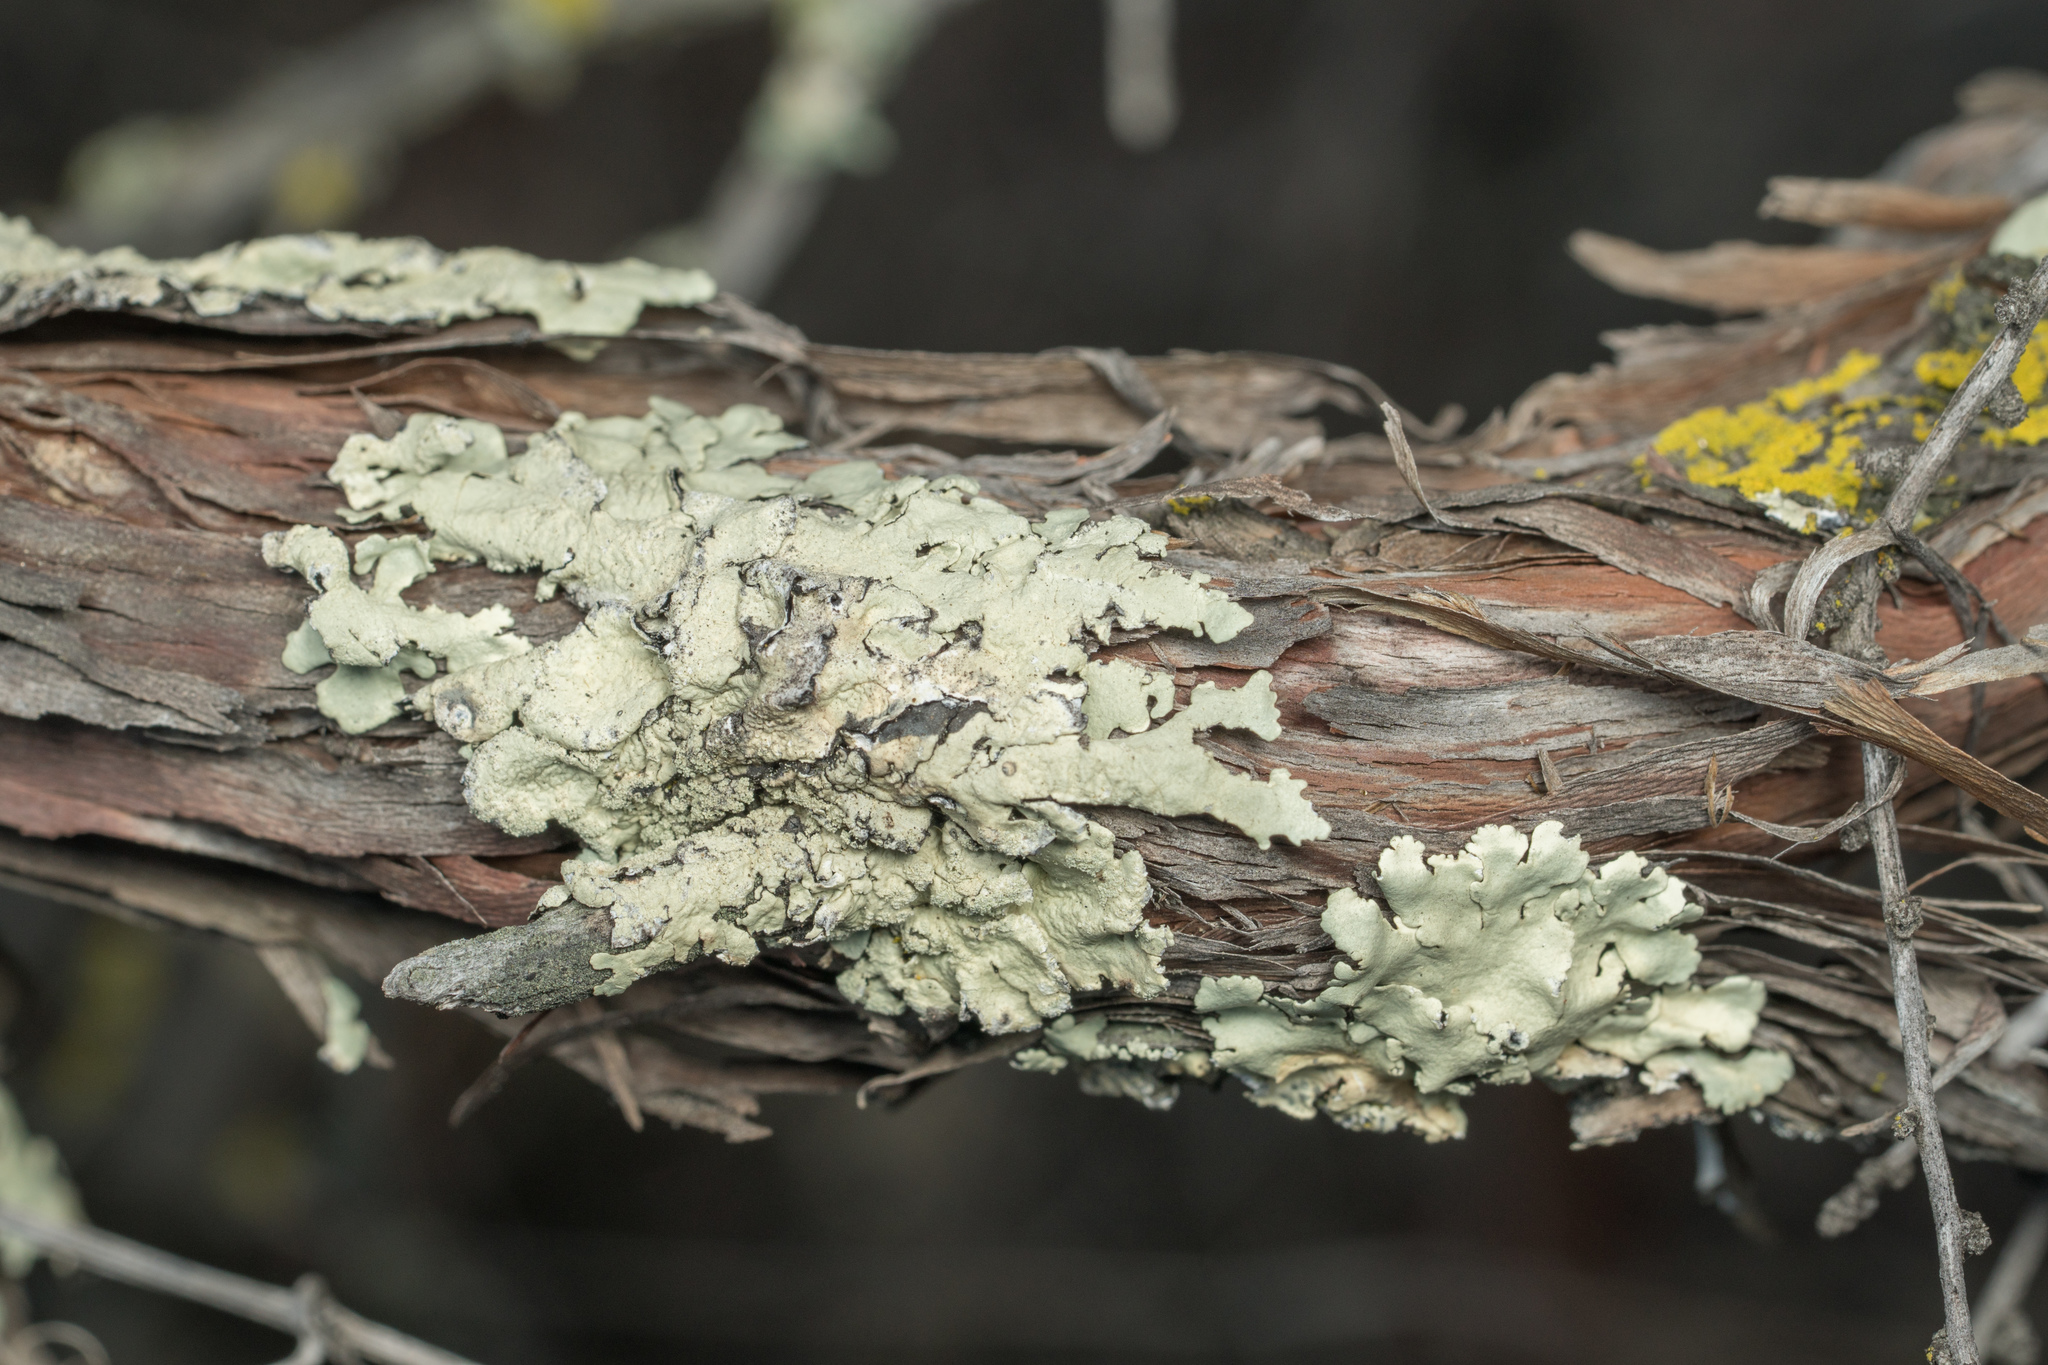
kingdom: Fungi
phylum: Ascomycota
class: Lecanoromycetes
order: Lecanorales
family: Parmeliaceae
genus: Flavoparmelia
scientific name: Flavoparmelia caperata
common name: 40-mile per hour lichen
